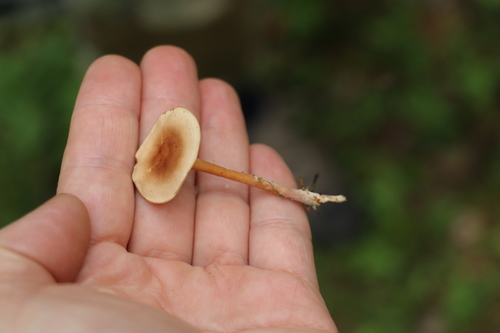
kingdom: Fungi
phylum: Basidiomycota
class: Agaricomycetes
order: Agaricales
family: Omphalotaceae
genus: Gymnopus
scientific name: Gymnopus dryophilus
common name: Penny top
